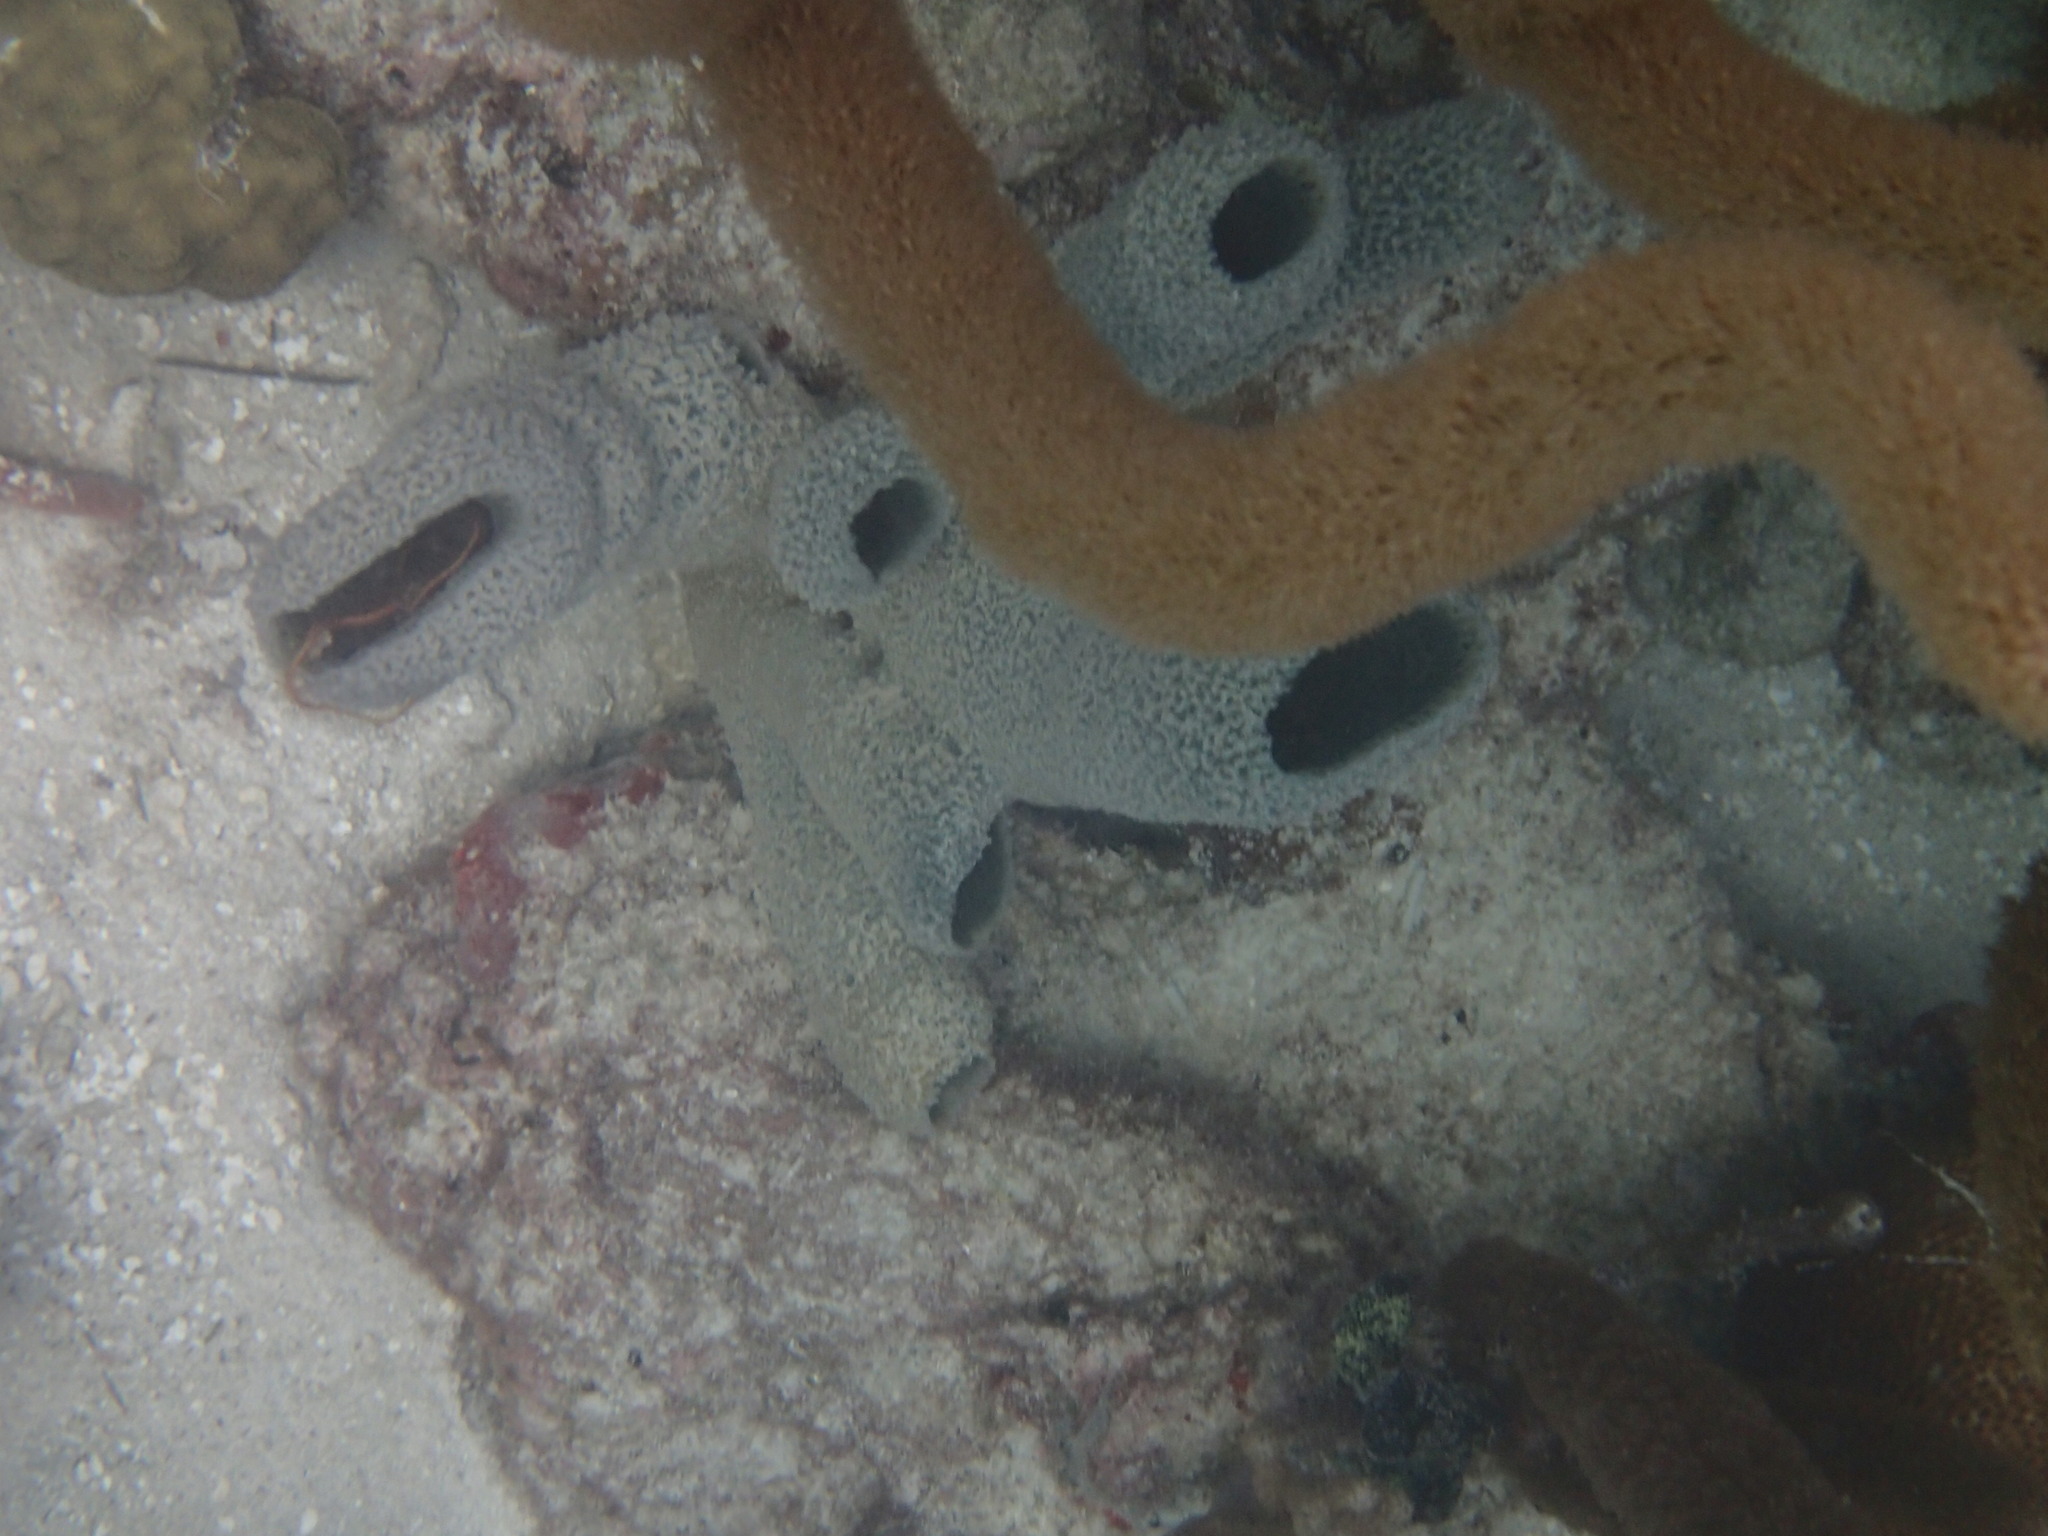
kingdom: Animalia
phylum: Porifera
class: Demospongiae
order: Haplosclerida
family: Niphatidae
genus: Niphates
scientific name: Niphates digitalis
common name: Pink vase sponge
